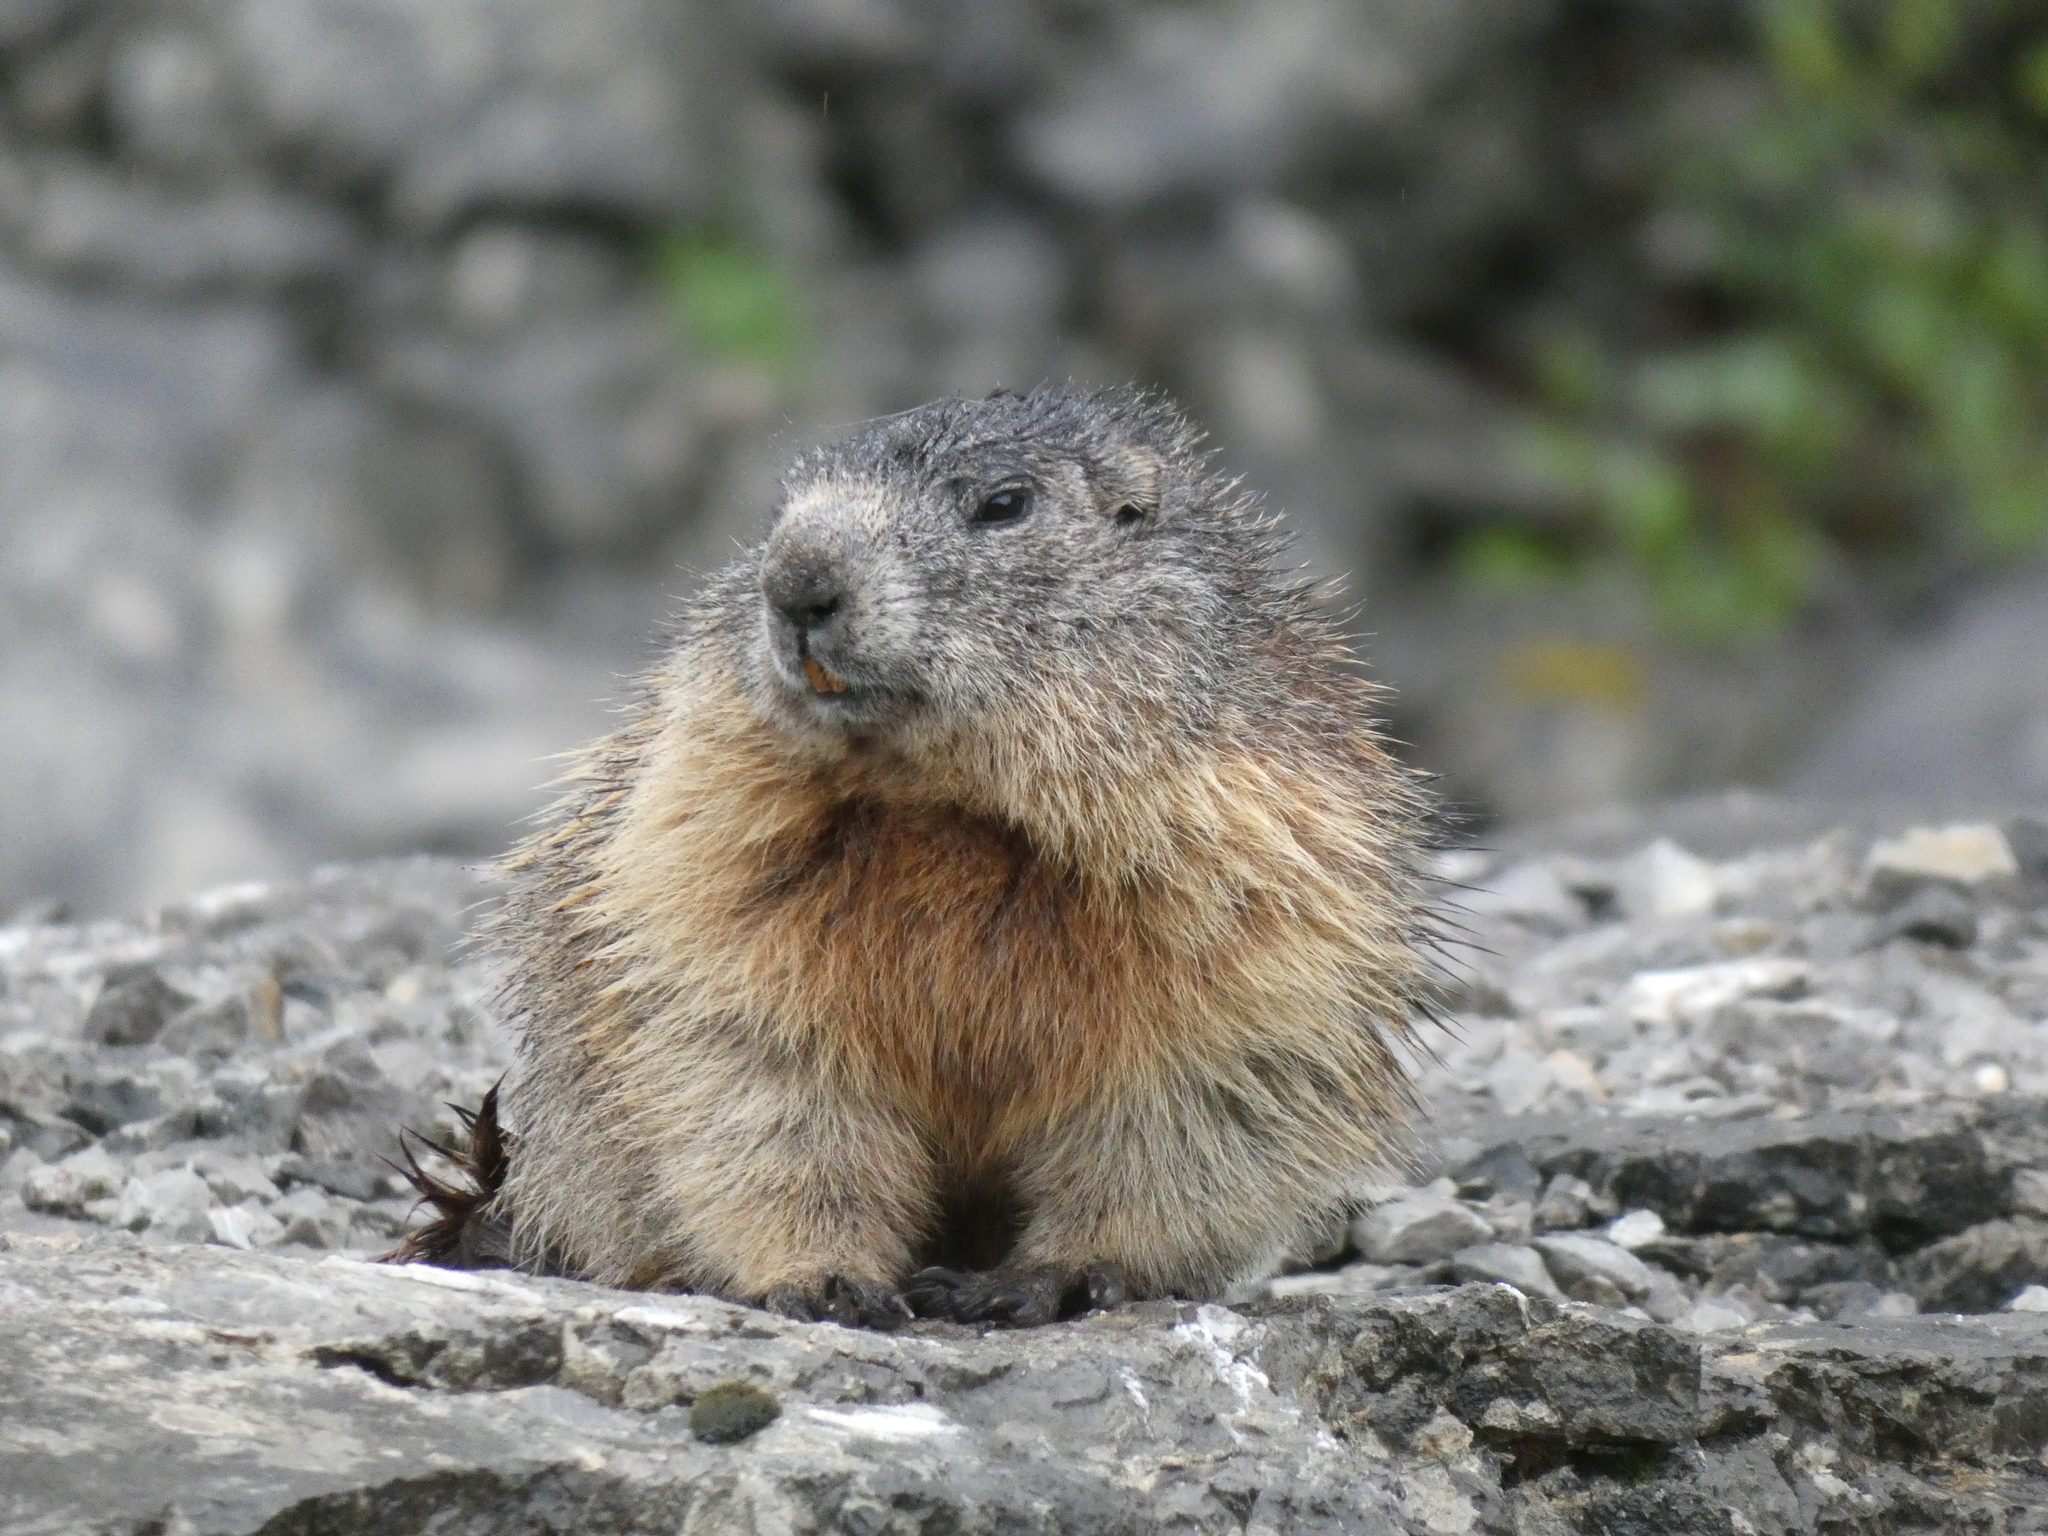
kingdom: Animalia
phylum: Chordata
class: Mammalia
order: Rodentia
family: Sciuridae
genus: Marmota
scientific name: Marmota marmota
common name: Alpine marmot
